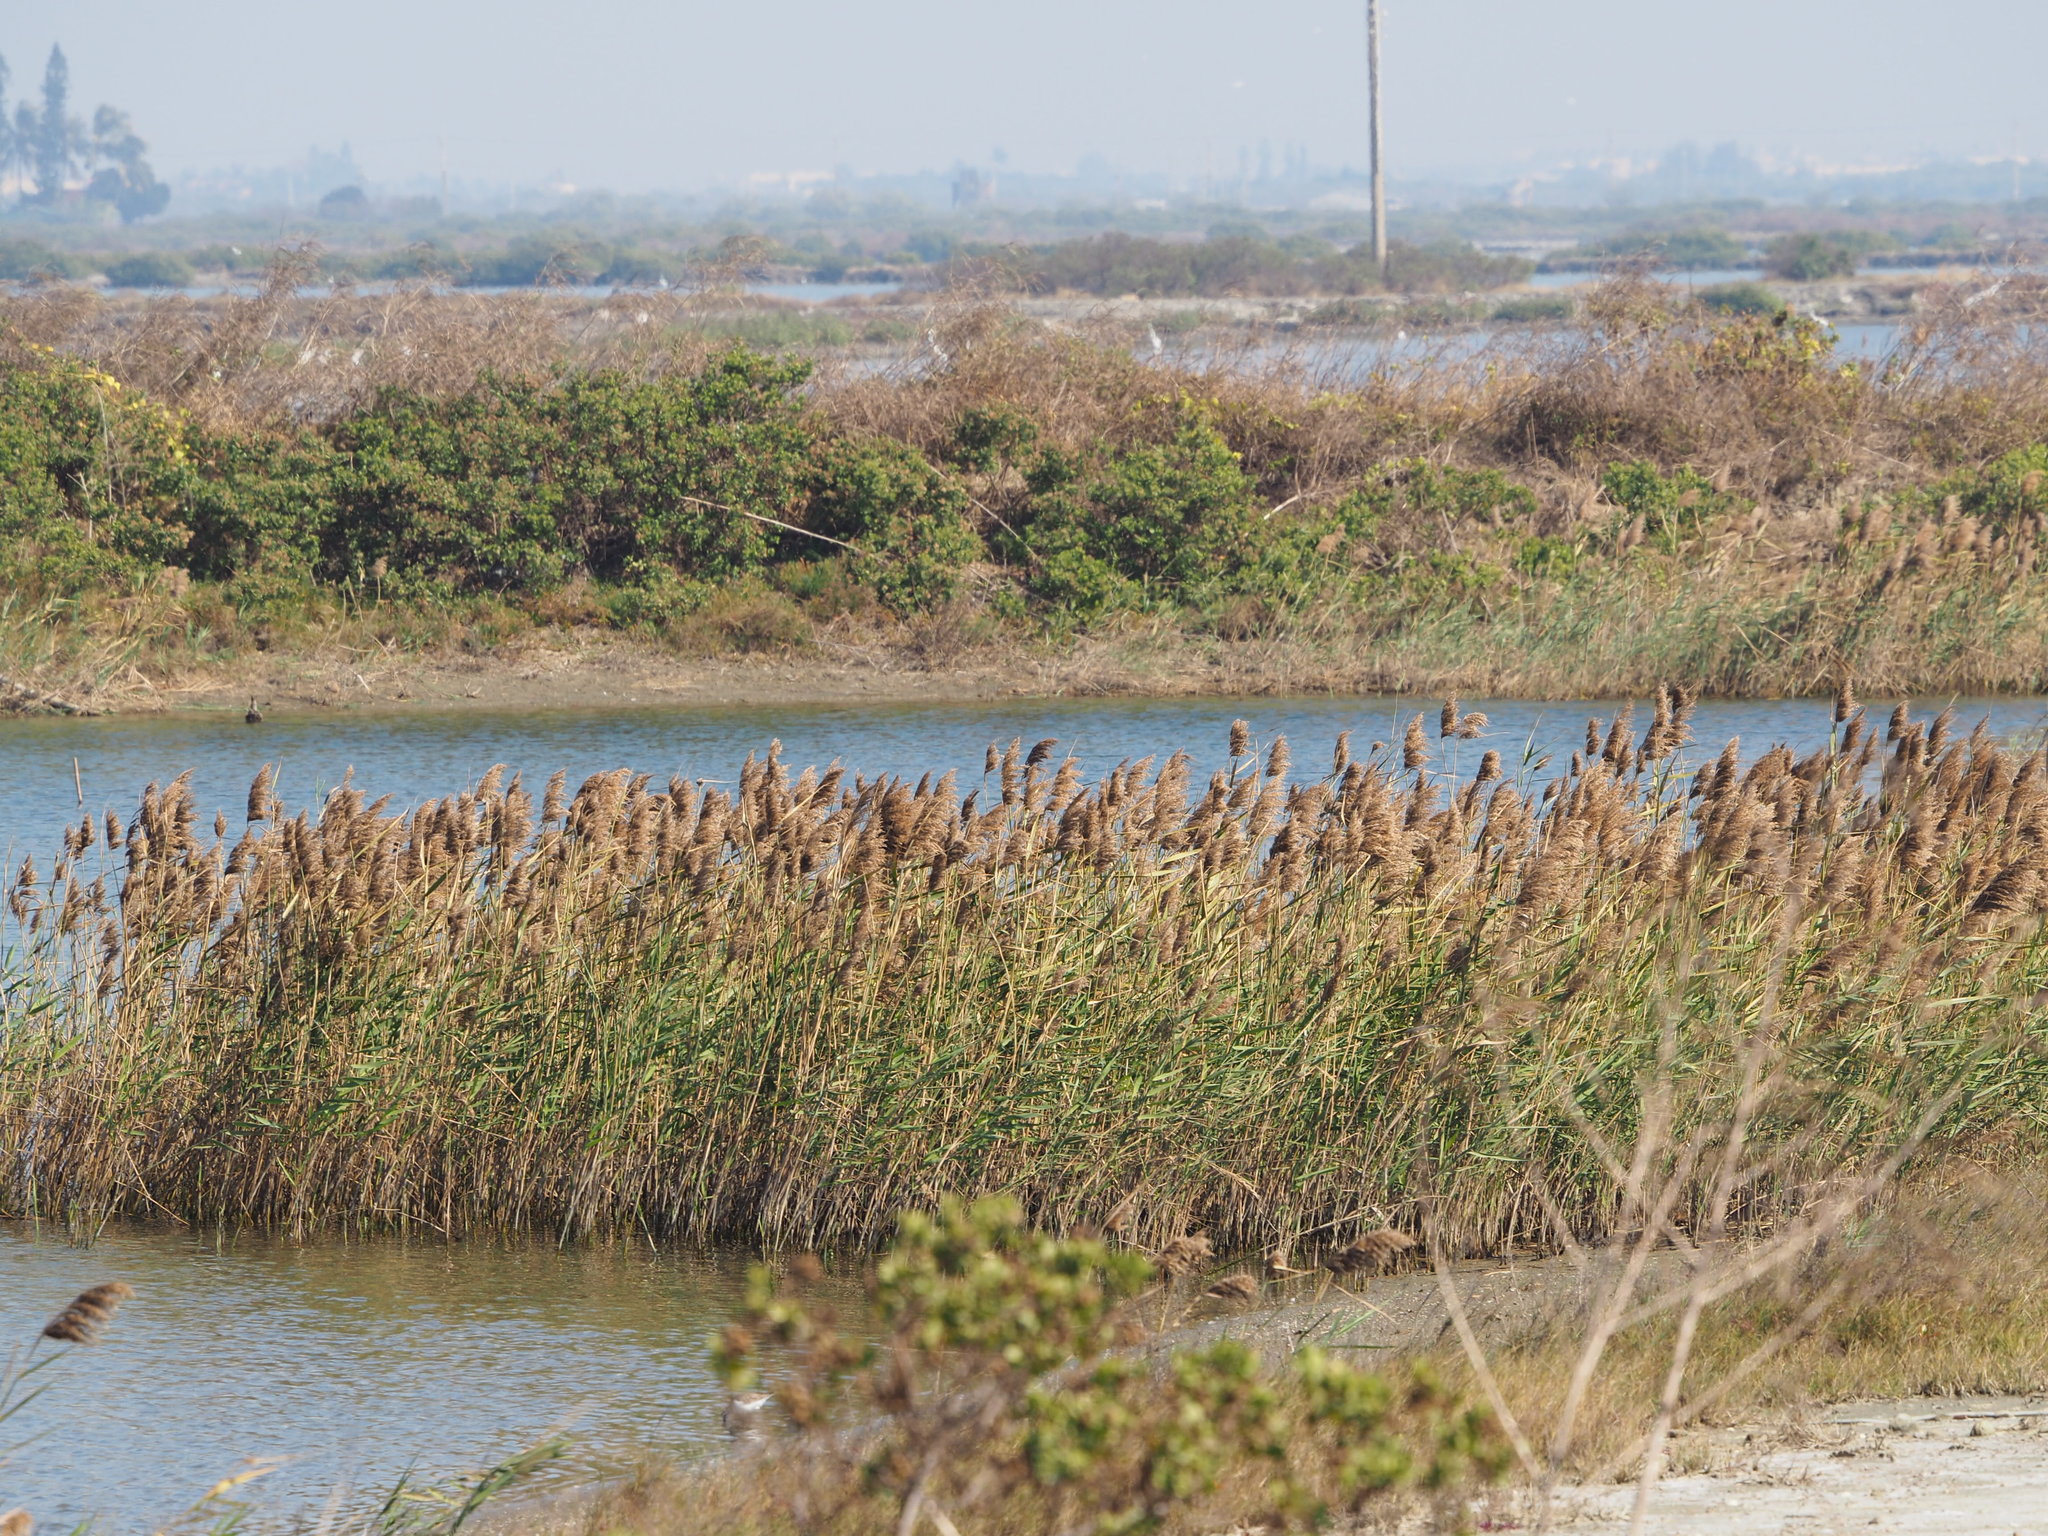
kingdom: Plantae
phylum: Tracheophyta
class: Liliopsida
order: Poales
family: Poaceae
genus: Phragmites
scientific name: Phragmites australis
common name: Common reed
